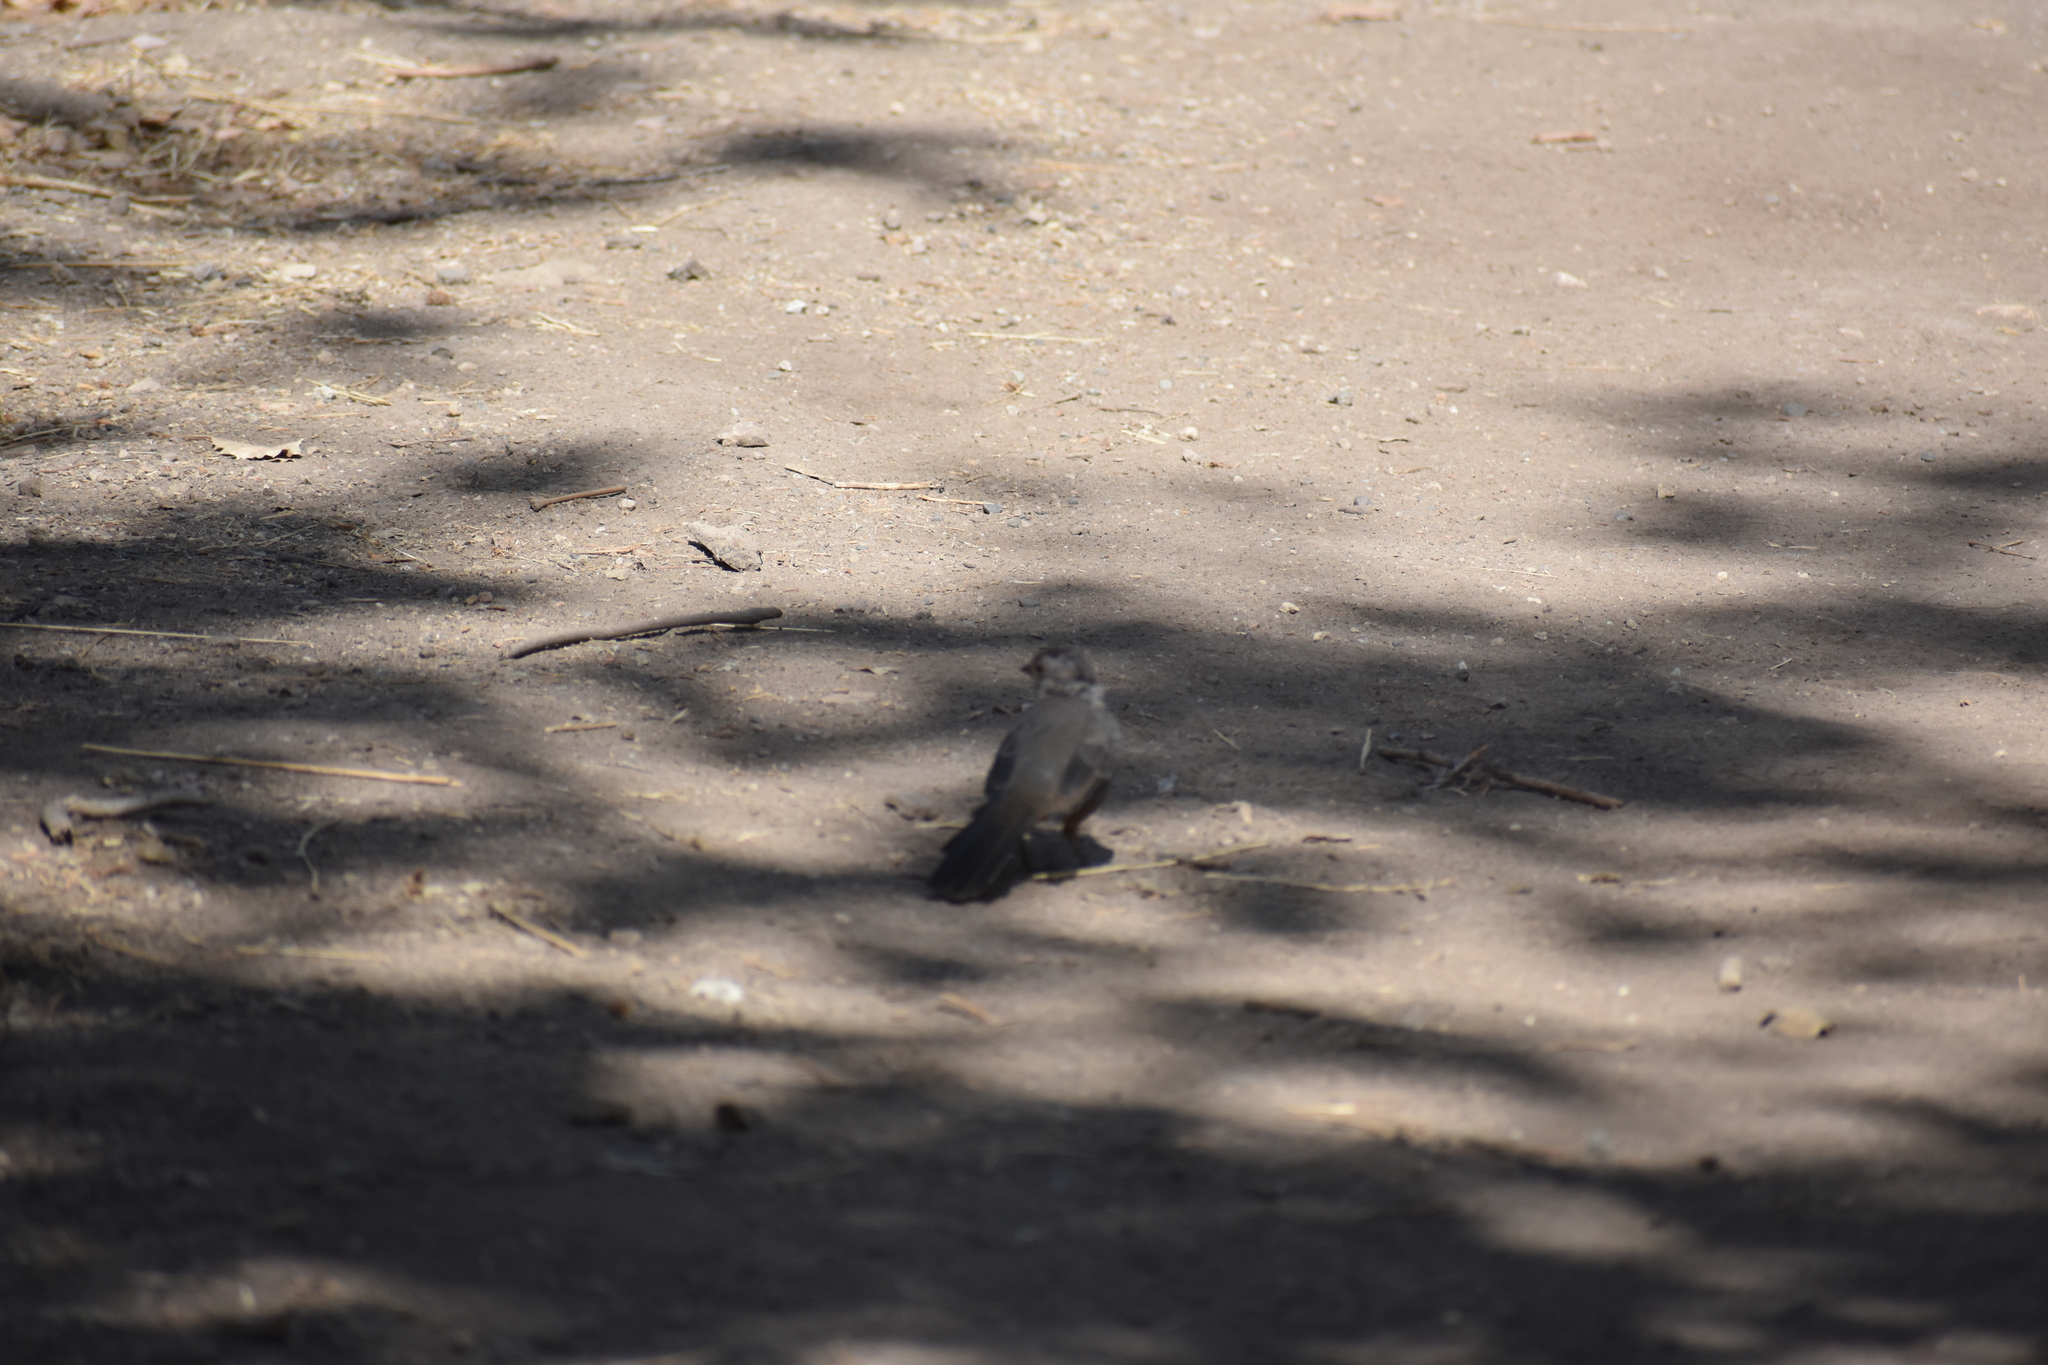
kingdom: Animalia
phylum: Chordata
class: Aves
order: Passeriformes
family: Passerellidae
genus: Melozone
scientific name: Melozone crissalis
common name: California towhee
